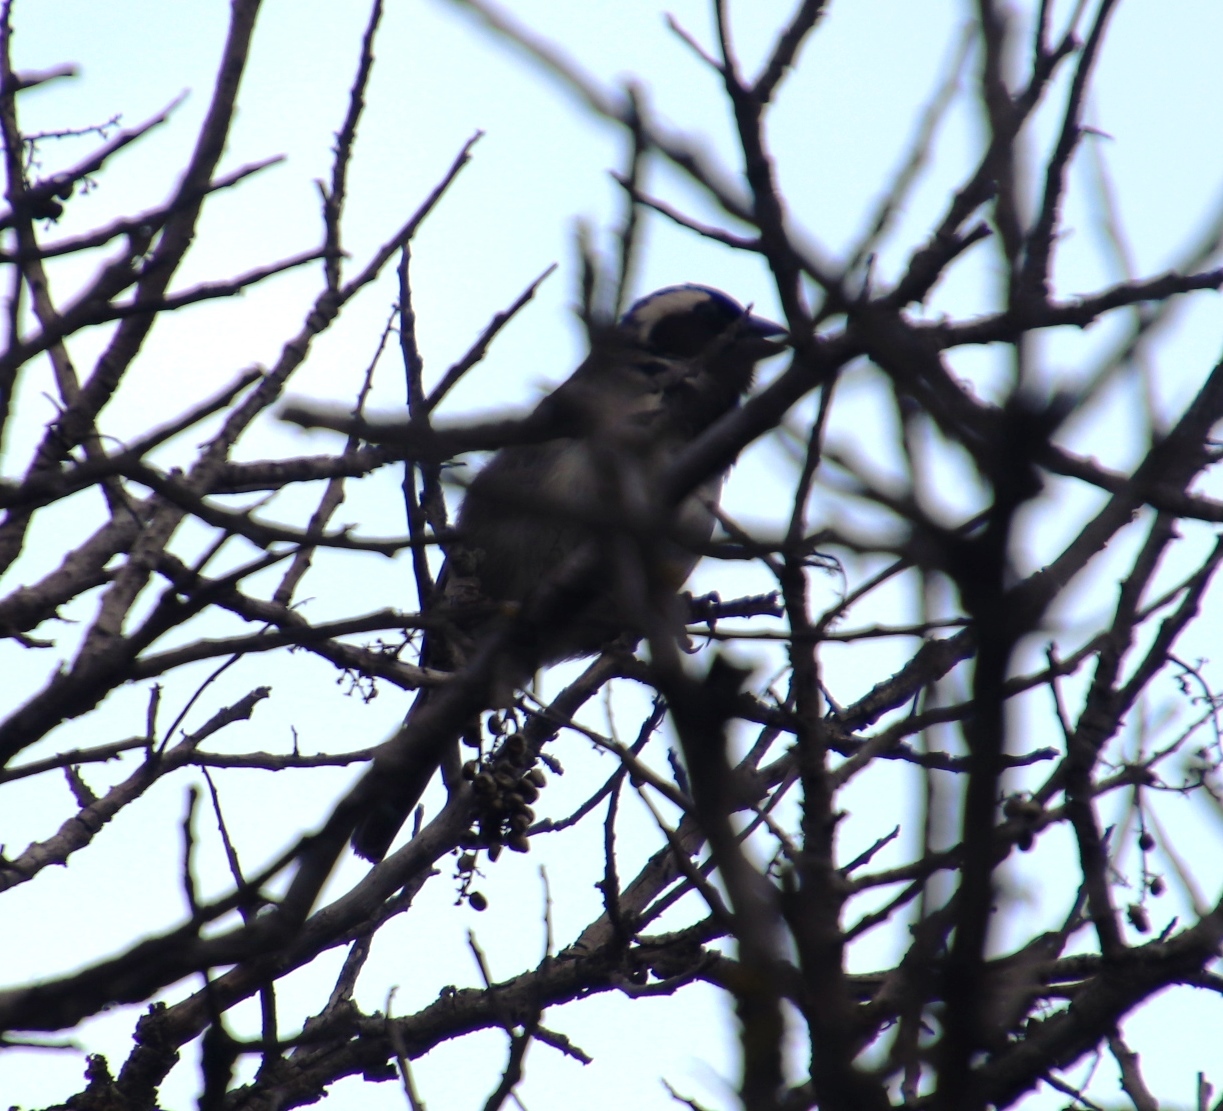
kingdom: Animalia
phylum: Chordata
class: Aves
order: Passeriformes
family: Passeridae
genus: Passer
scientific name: Passer melanurus
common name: Cape sparrow
